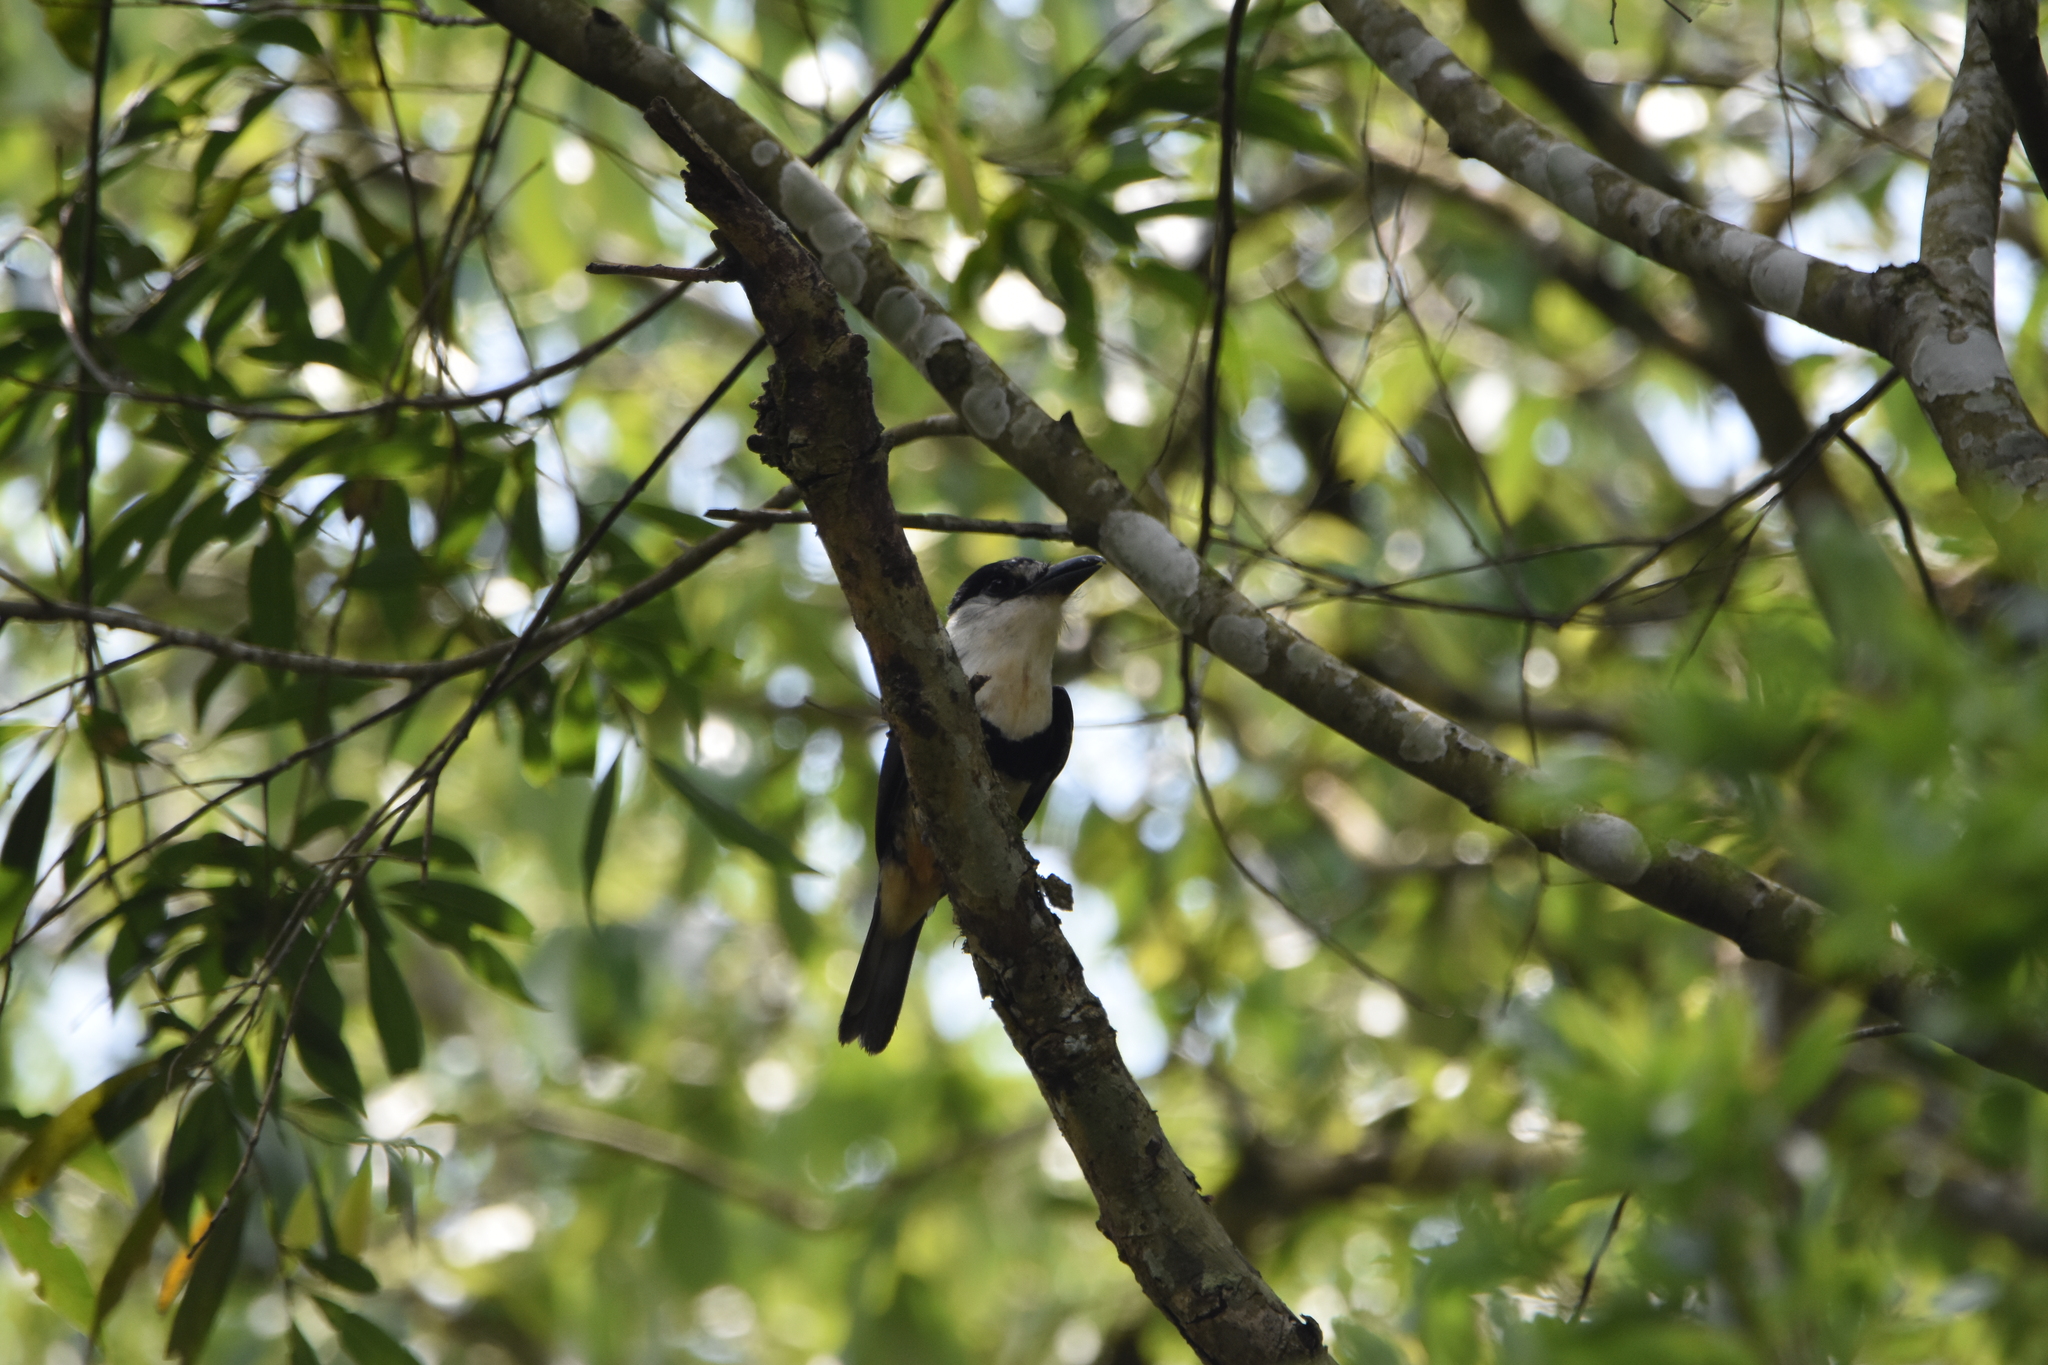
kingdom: Animalia
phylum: Chordata
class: Aves
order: Piciformes
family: Bucconidae
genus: Notharchus
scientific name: Notharchus swainsoni
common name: Buff-bellied puffbird
